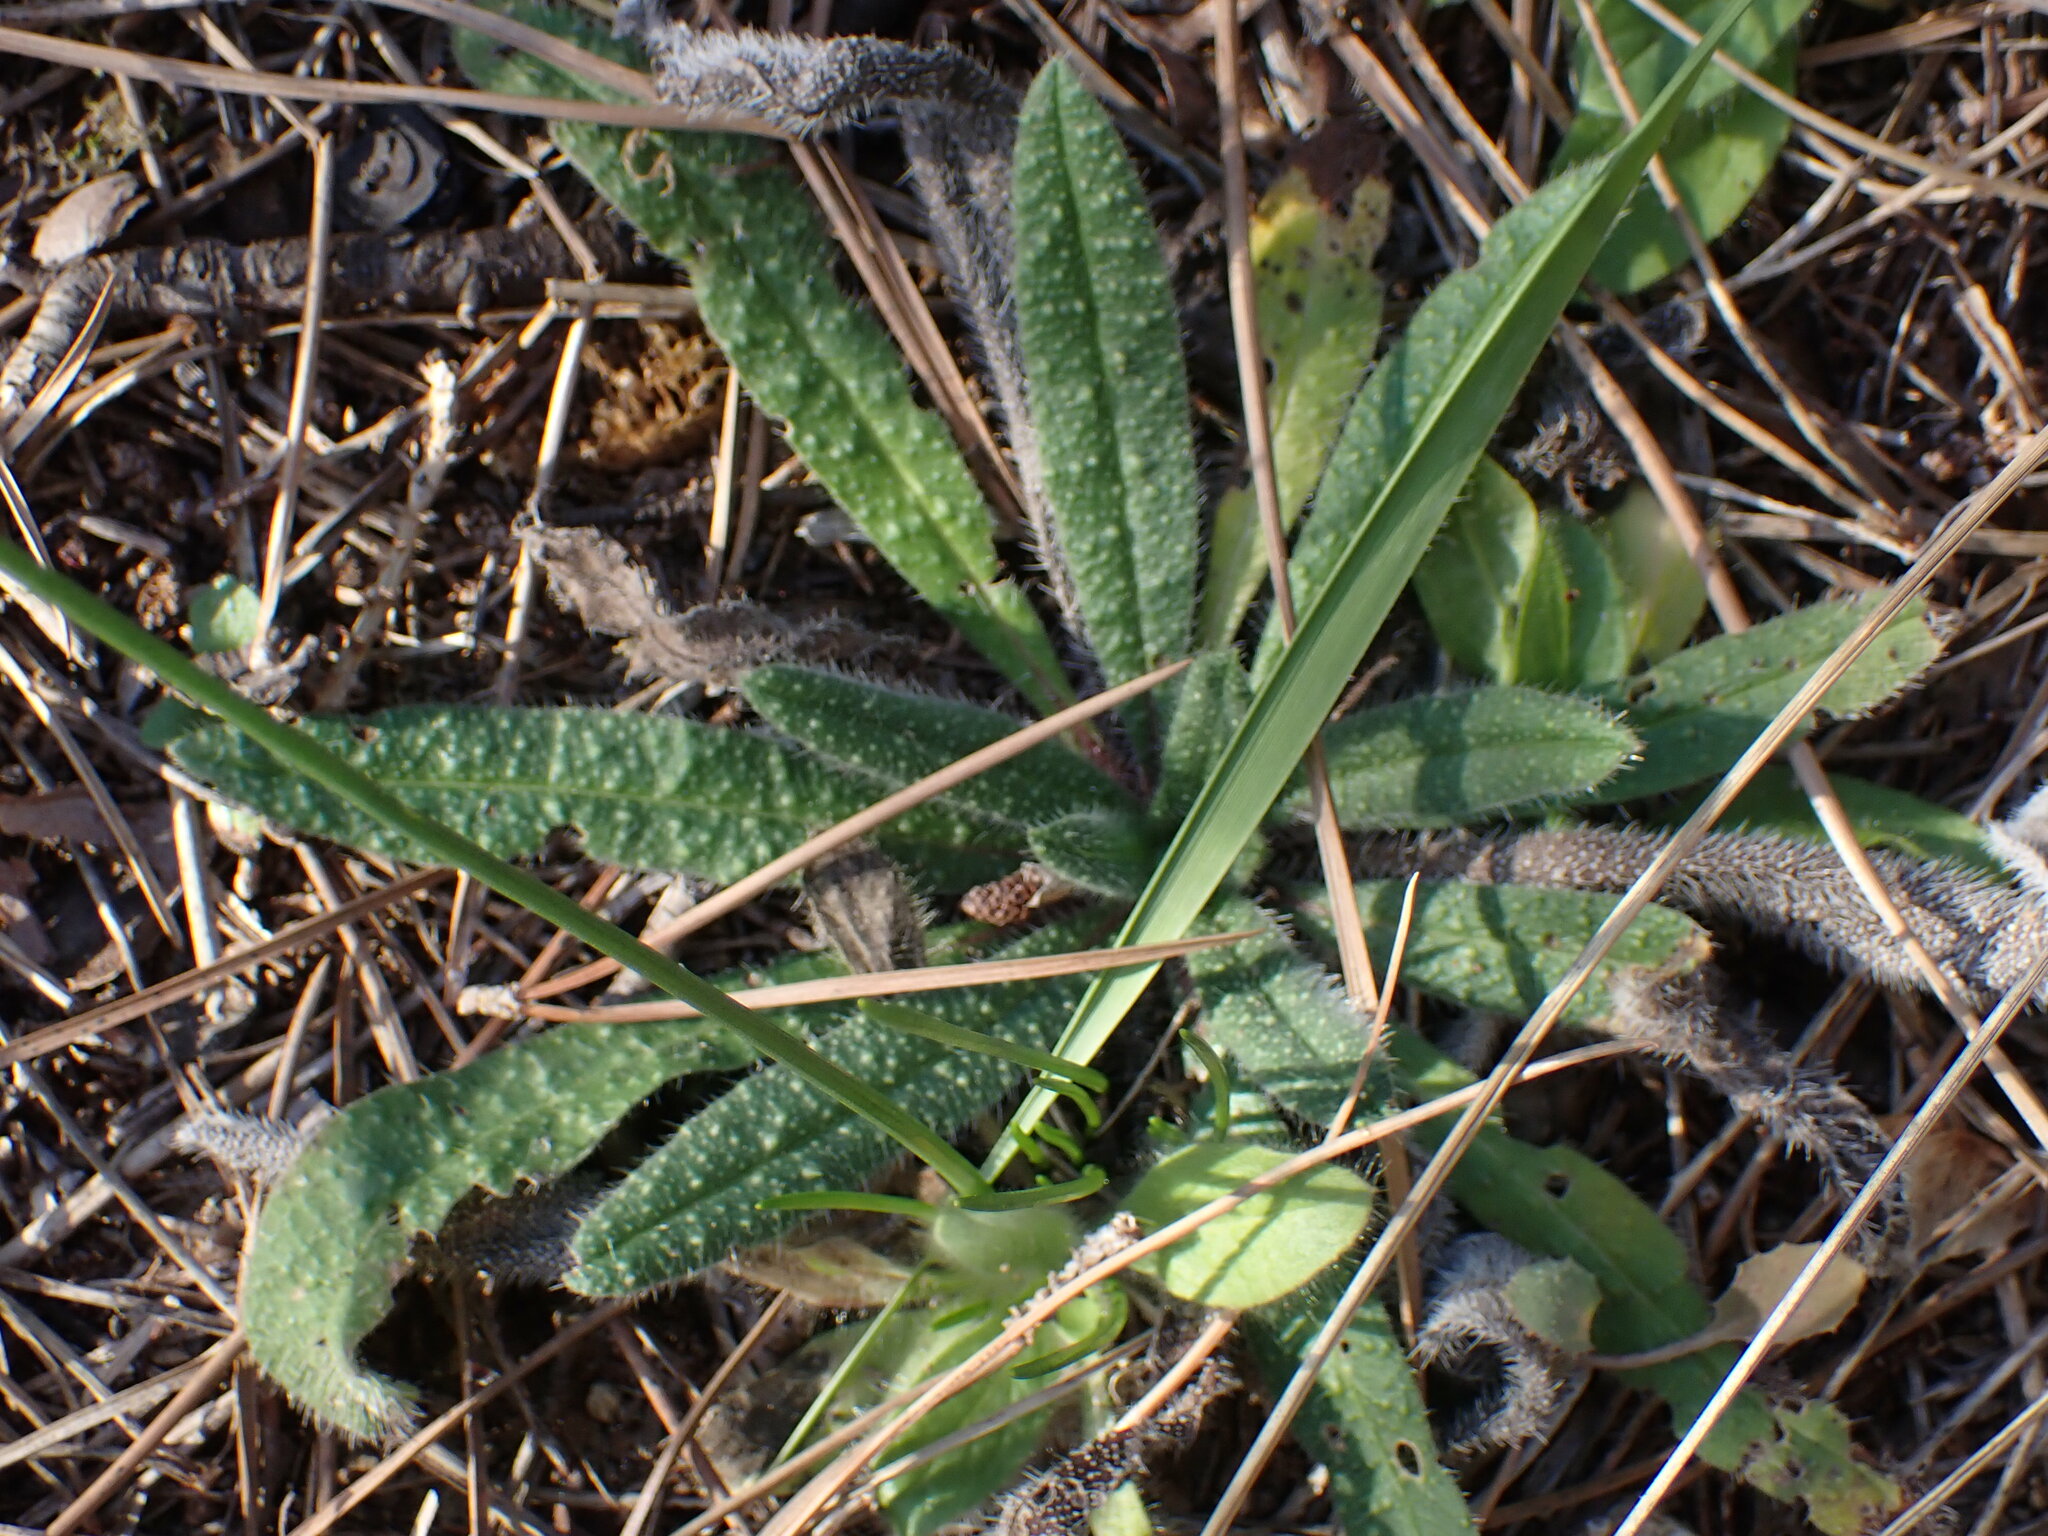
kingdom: Plantae
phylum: Tracheophyta
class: Magnoliopsida
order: Boraginales
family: Boraginaceae
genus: Echium
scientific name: Echium vulgare
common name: Common viper's bugloss
